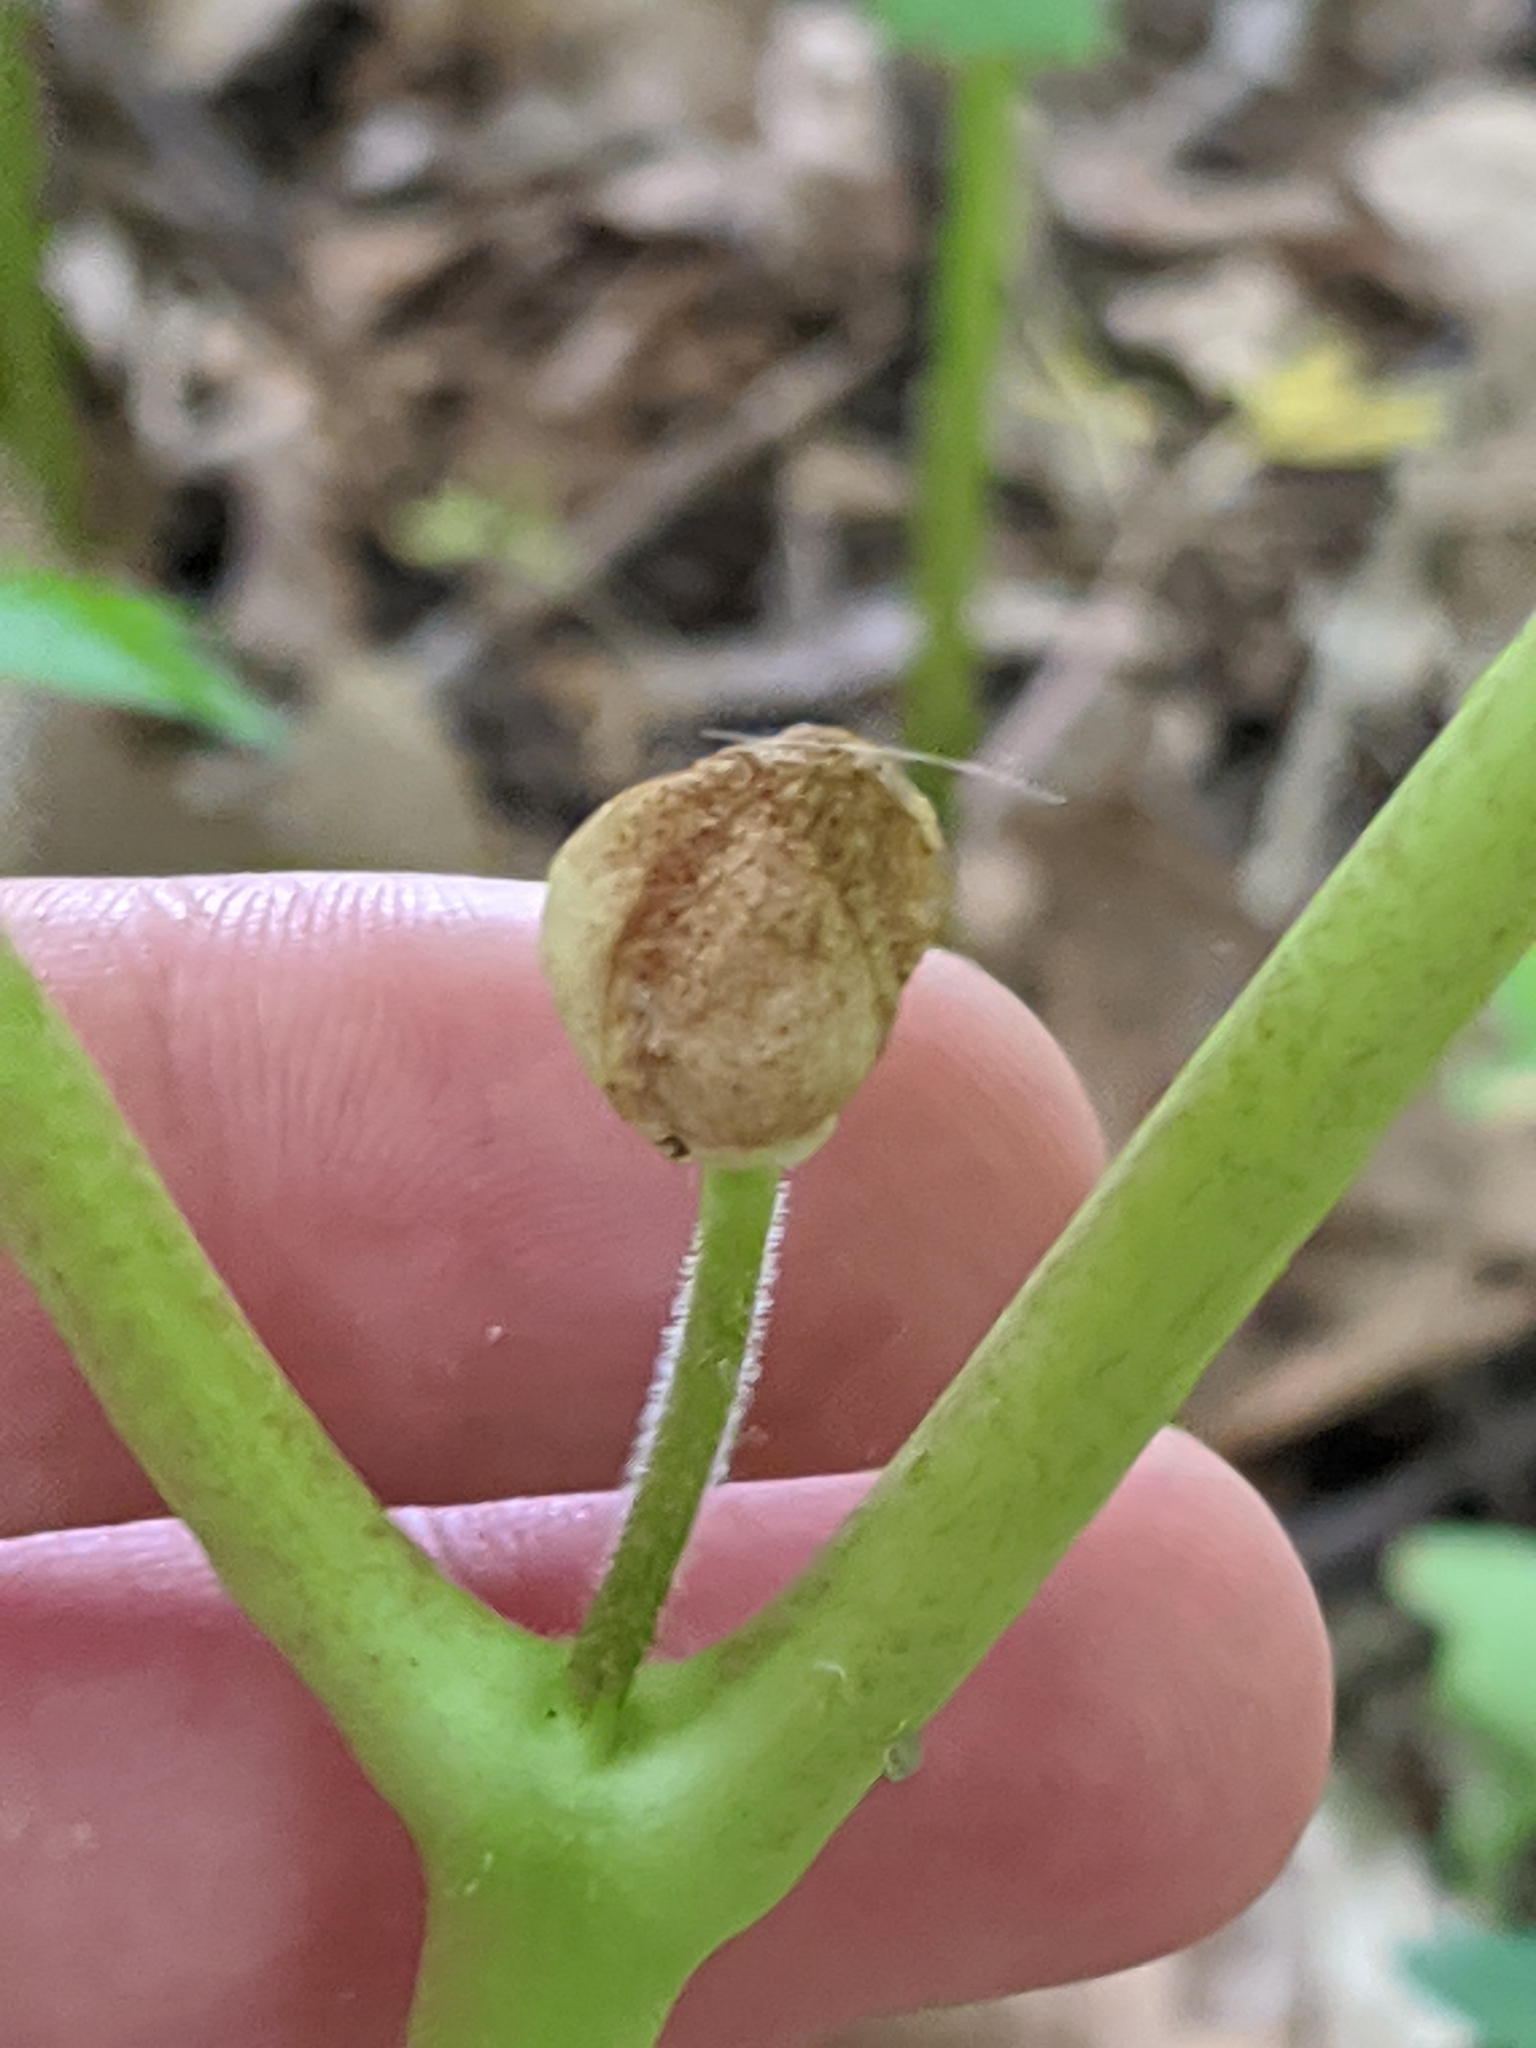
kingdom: Plantae
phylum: Tracheophyta
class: Magnoliopsida
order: Ranunculales
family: Berberidaceae
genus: Podophyllum
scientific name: Podophyllum peltatum
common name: Wild mandrake
